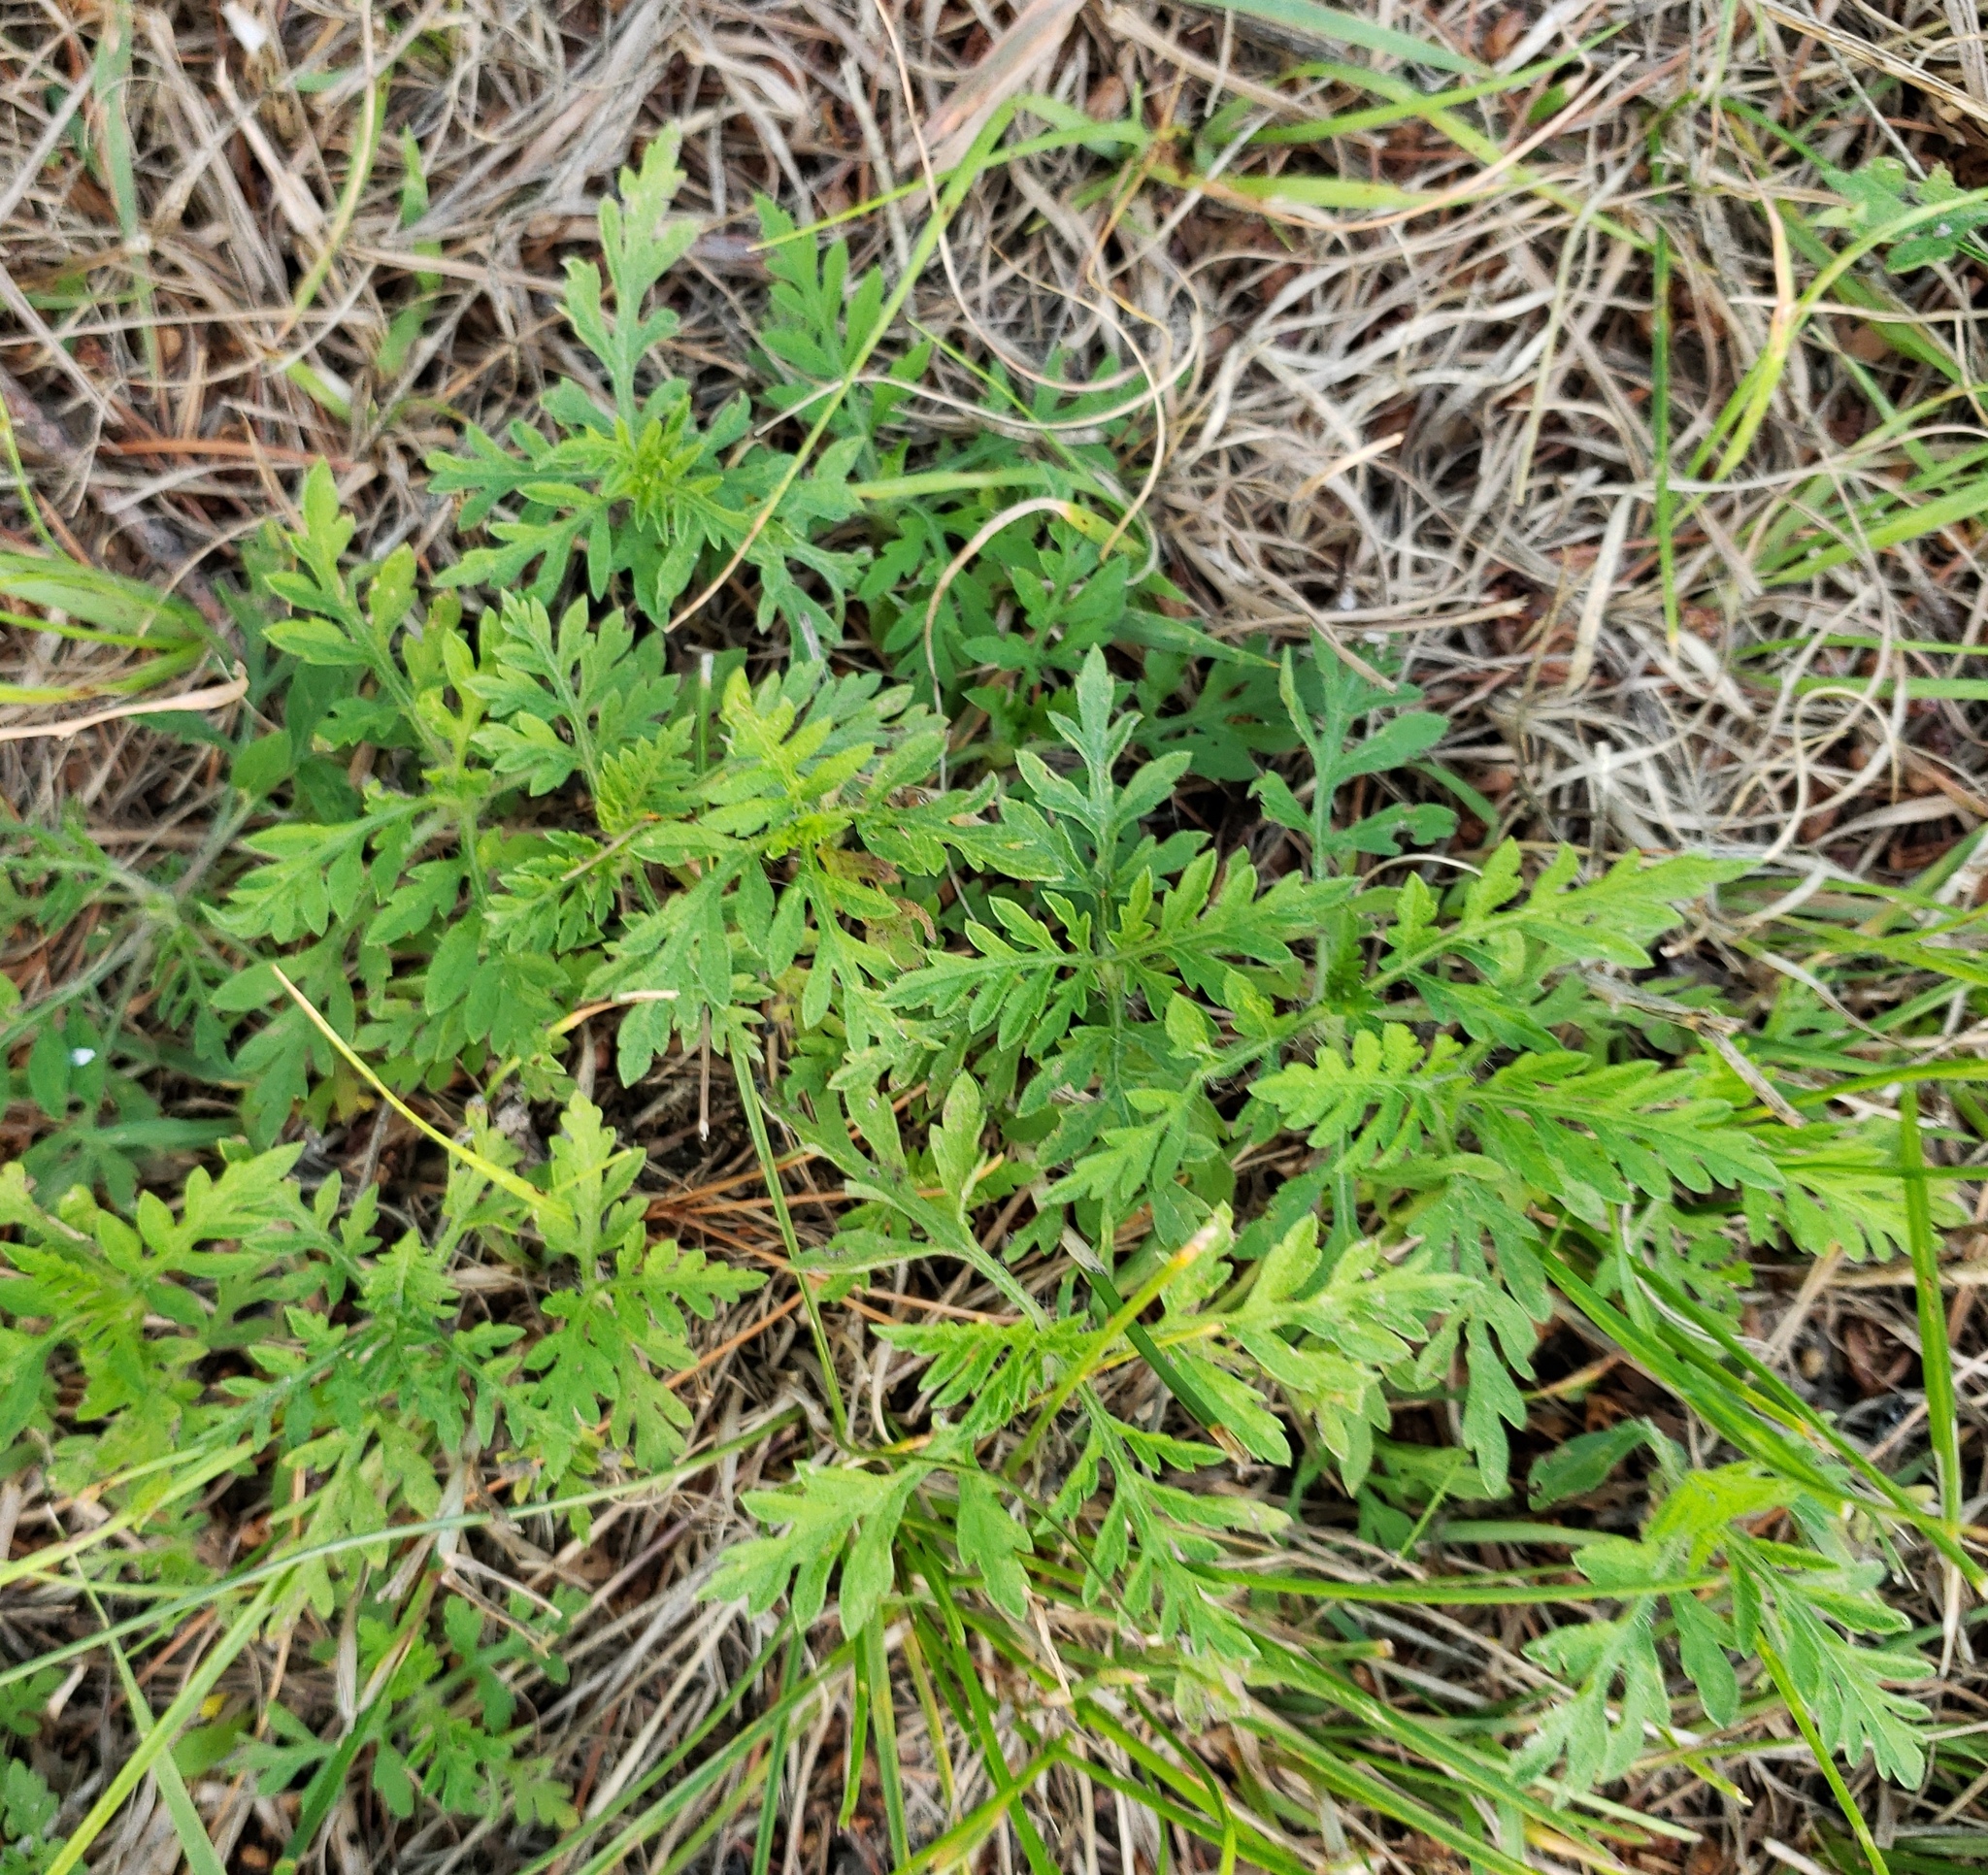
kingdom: Plantae
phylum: Tracheophyta
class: Magnoliopsida
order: Asterales
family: Asteraceae
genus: Ambrosia
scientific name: Ambrosia artemisiifolia
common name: Annual ragweed
